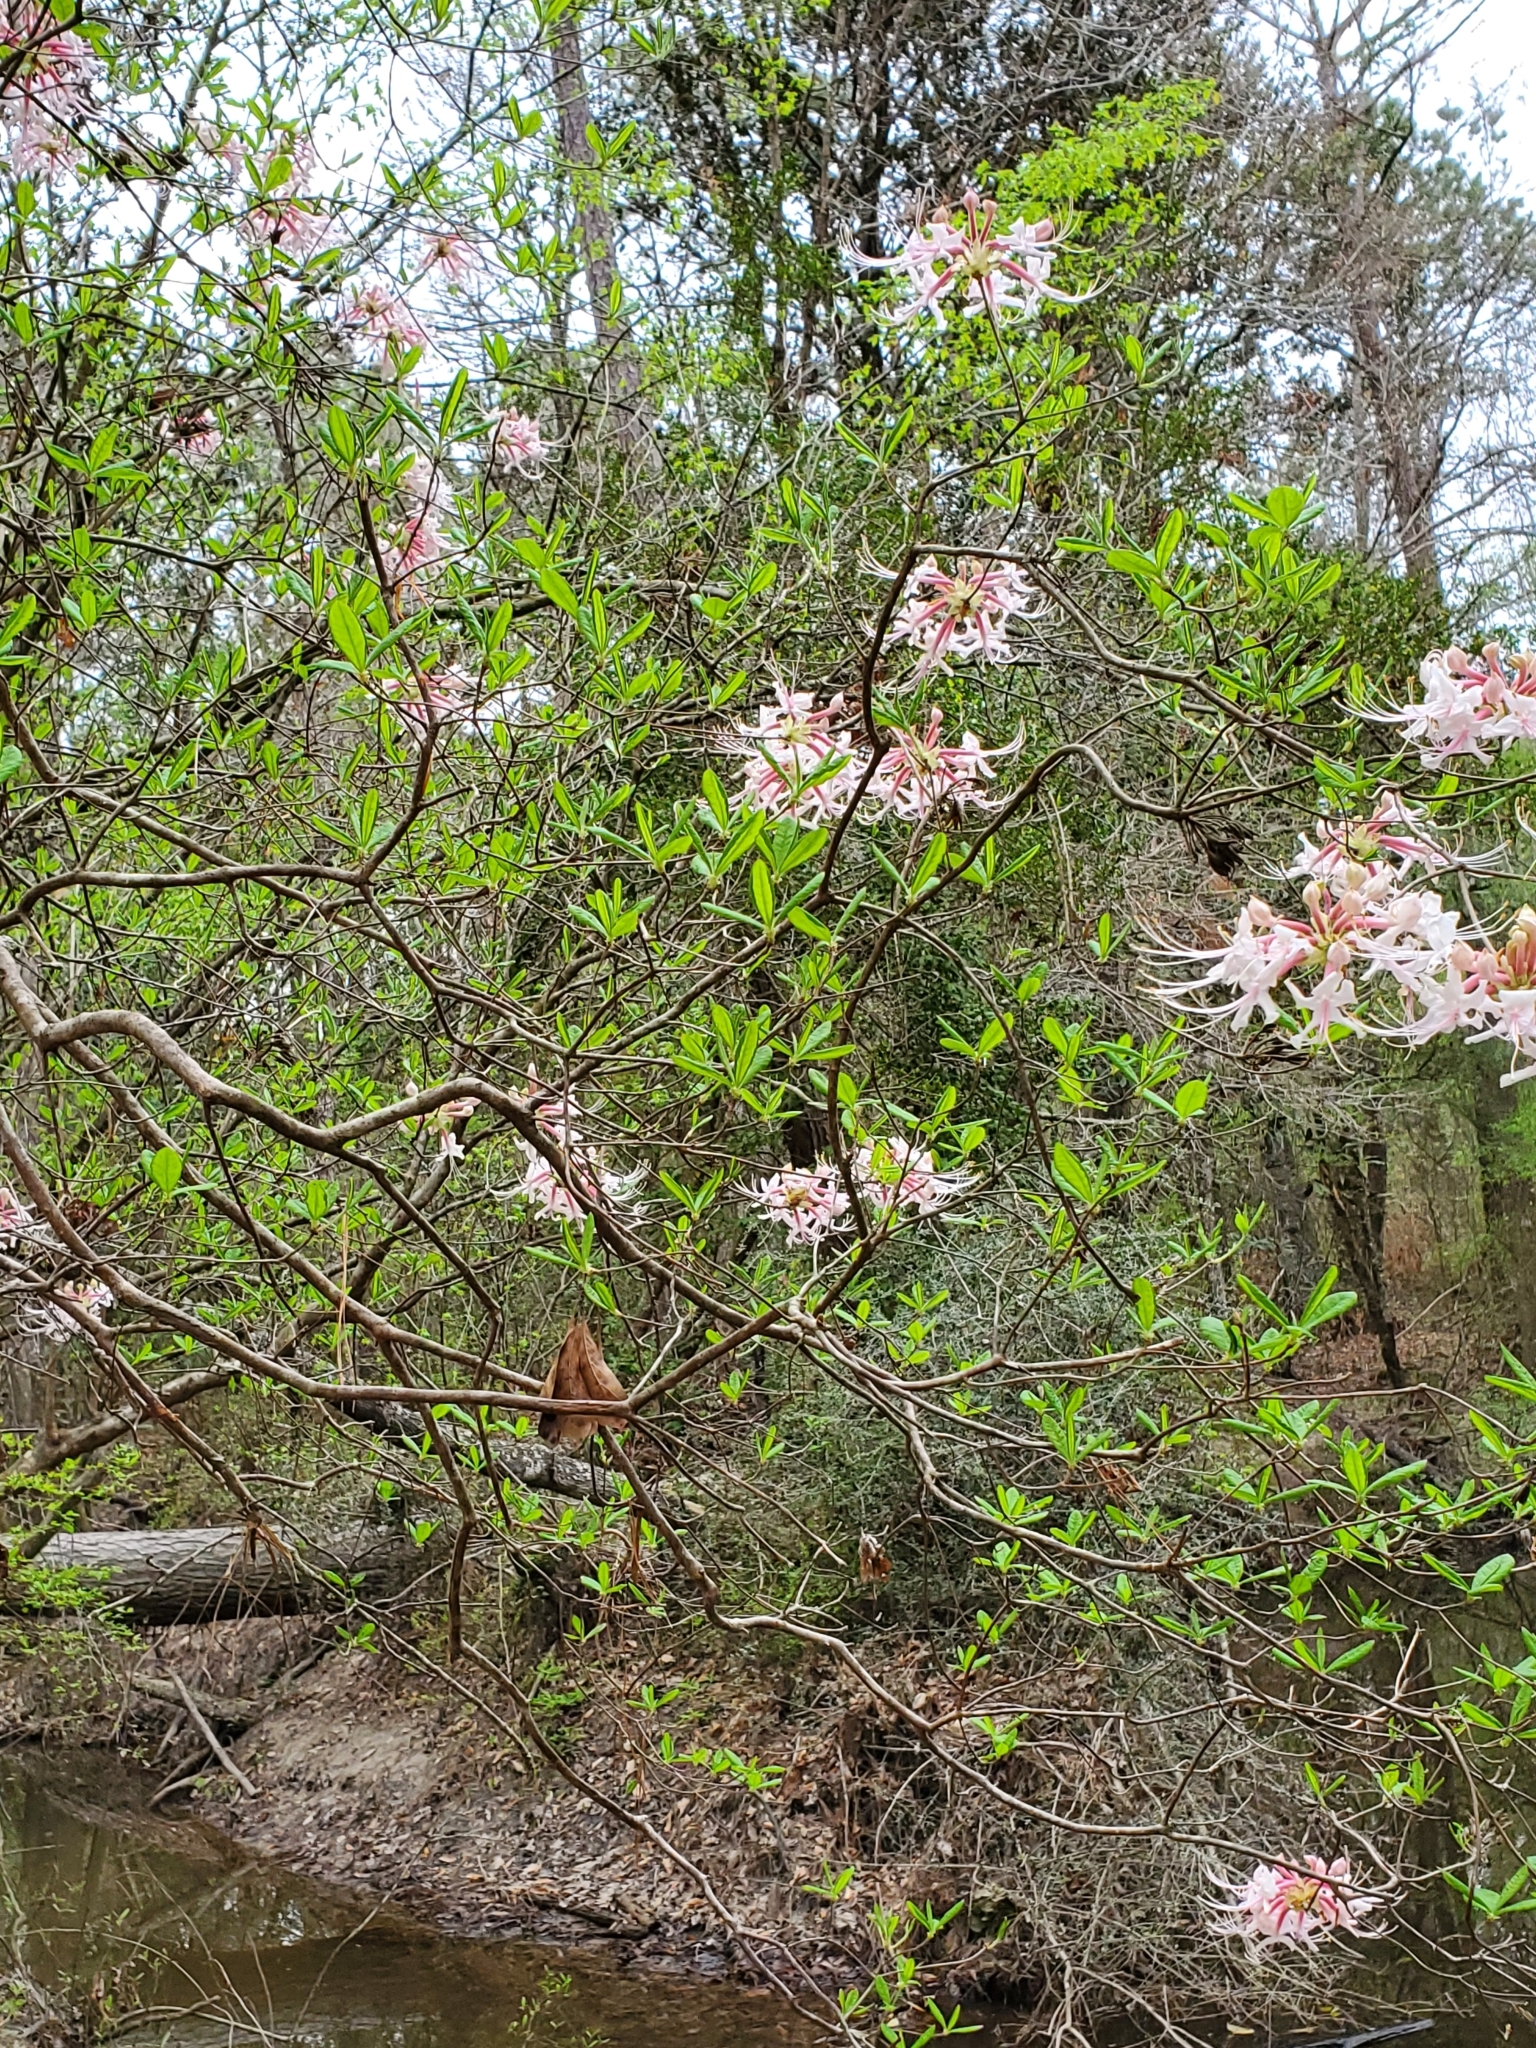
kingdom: Plantae
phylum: Tracheophyta
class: Magnoliopsida
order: Ericales
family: Ericaceae
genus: Rhododendron
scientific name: Rhododendron canescens
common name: Mountain azalea
